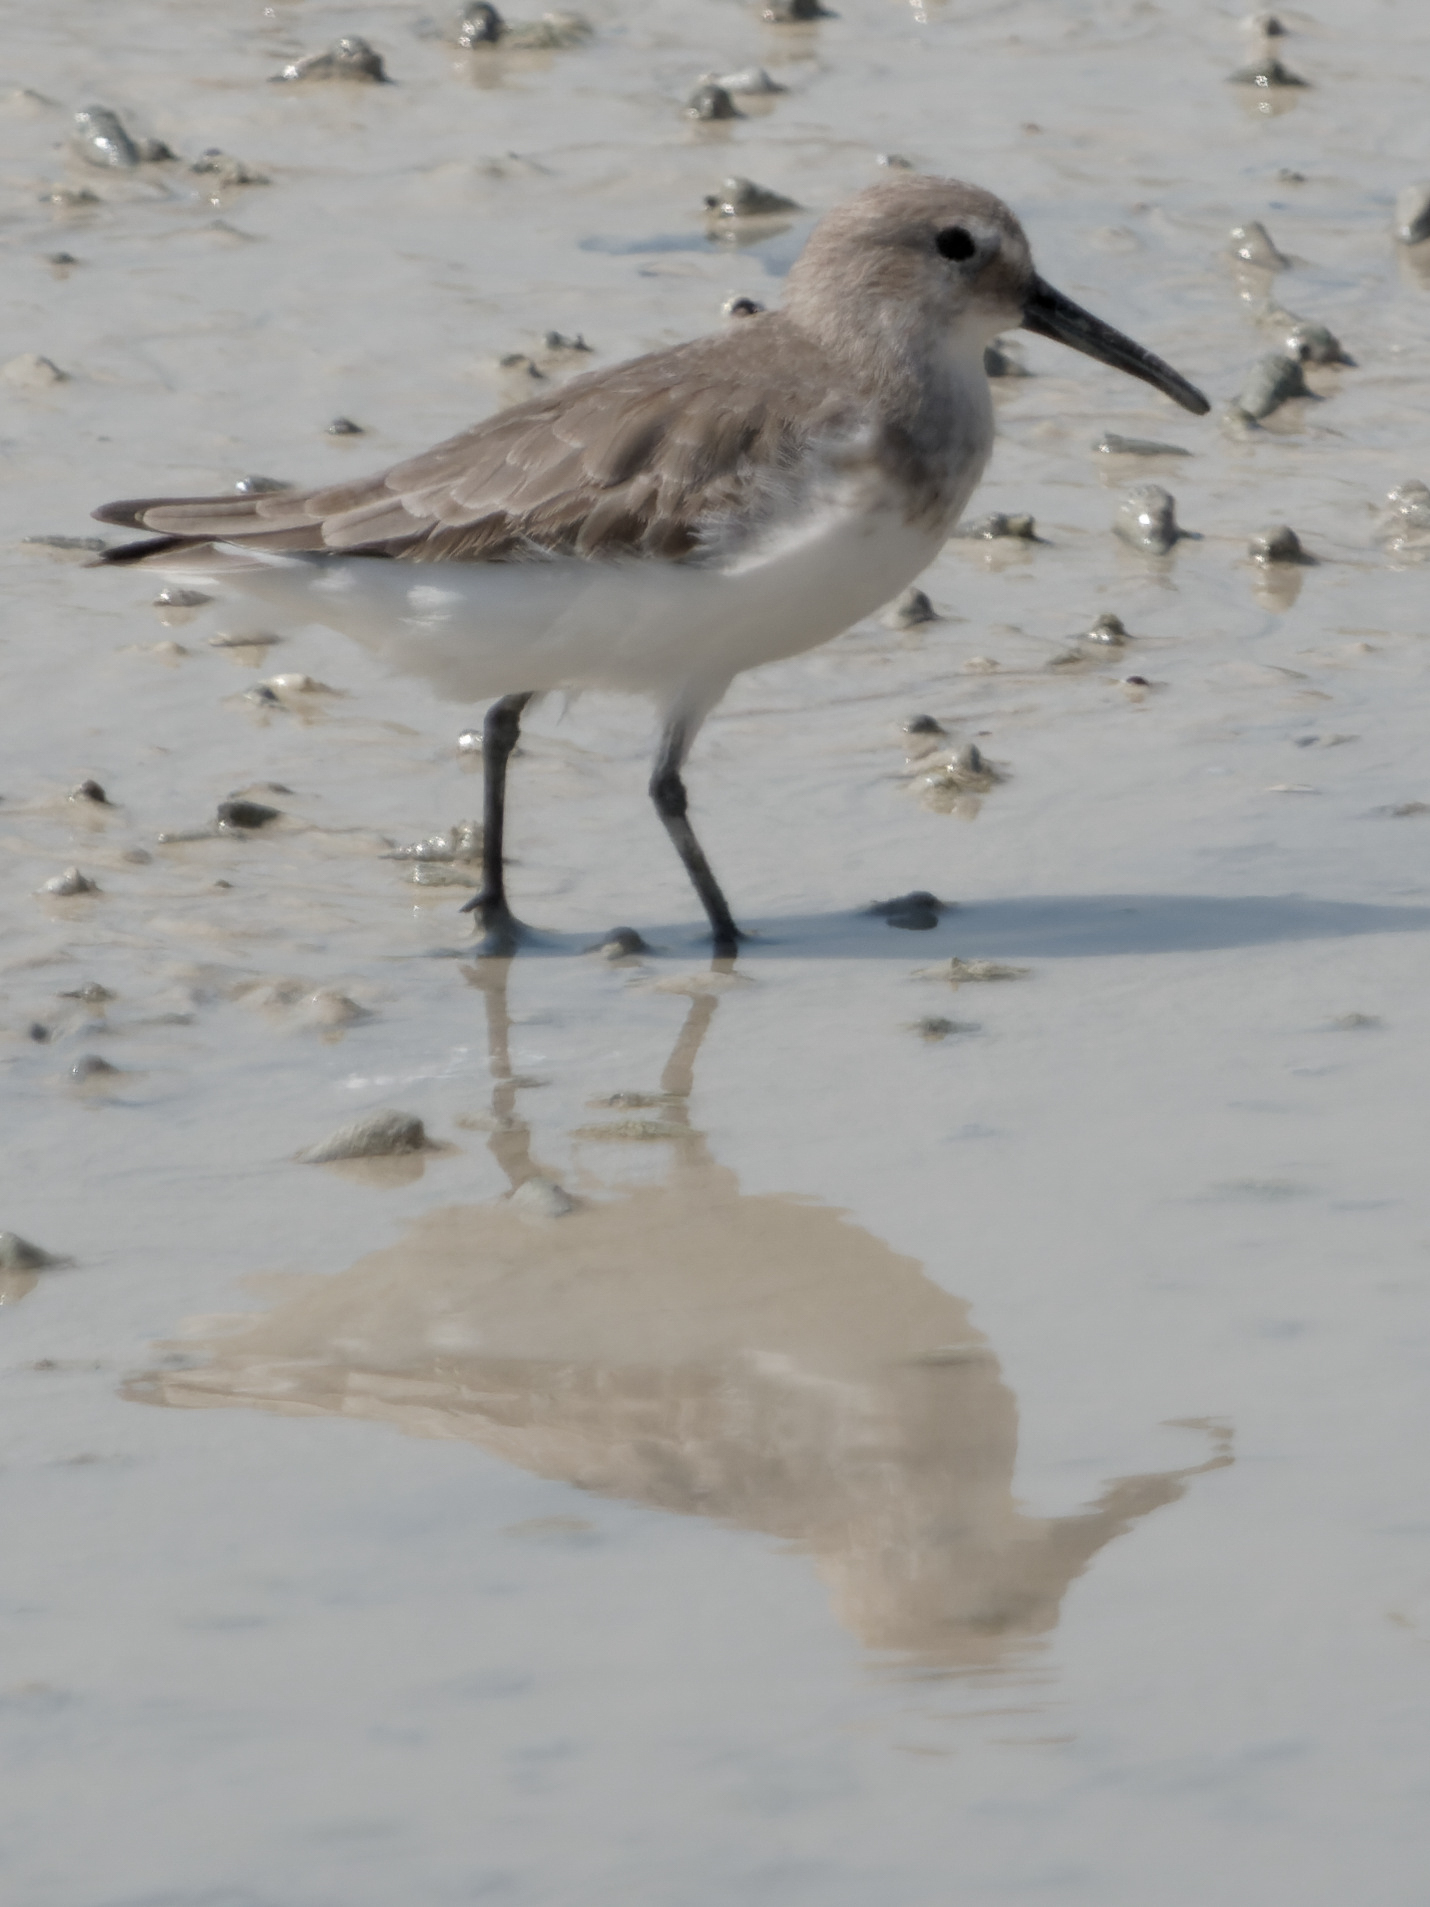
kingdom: Animalia
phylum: Chordata
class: Aves
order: Charadriiformes
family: Scolopacidae
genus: Calidris
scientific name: Calidris alpina
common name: Dunlin
